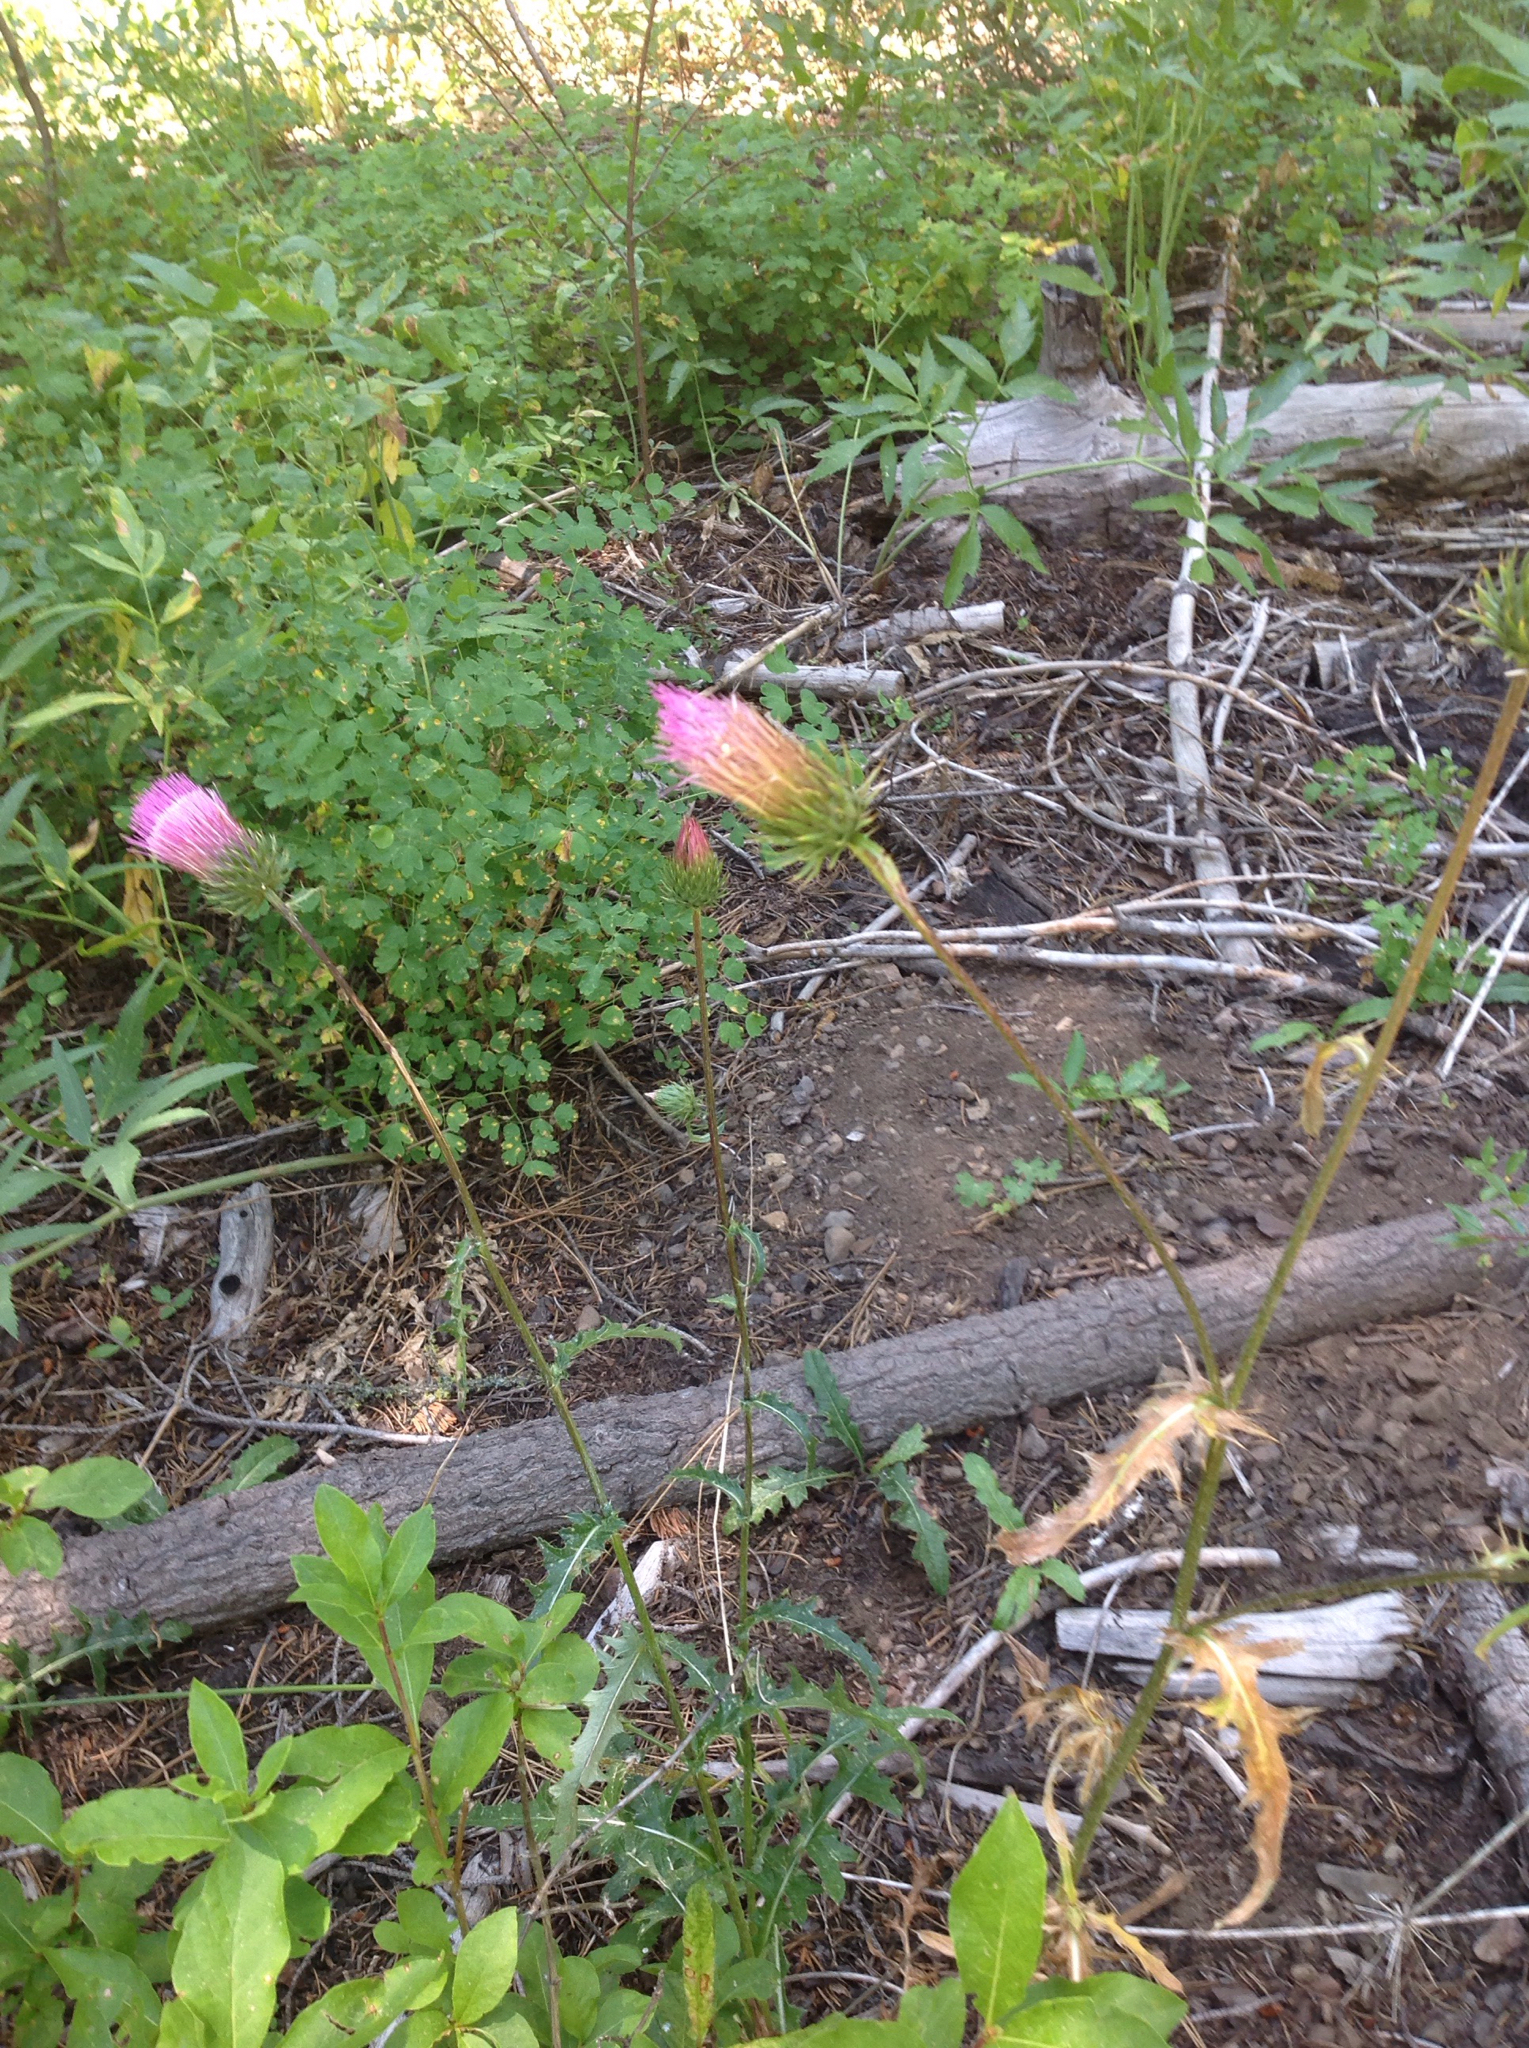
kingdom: Plantae
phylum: Tracheophyta
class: Magnoliopsida
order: Asterales
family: Asteraceae
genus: Cirsium
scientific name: Cirsium andersonii
